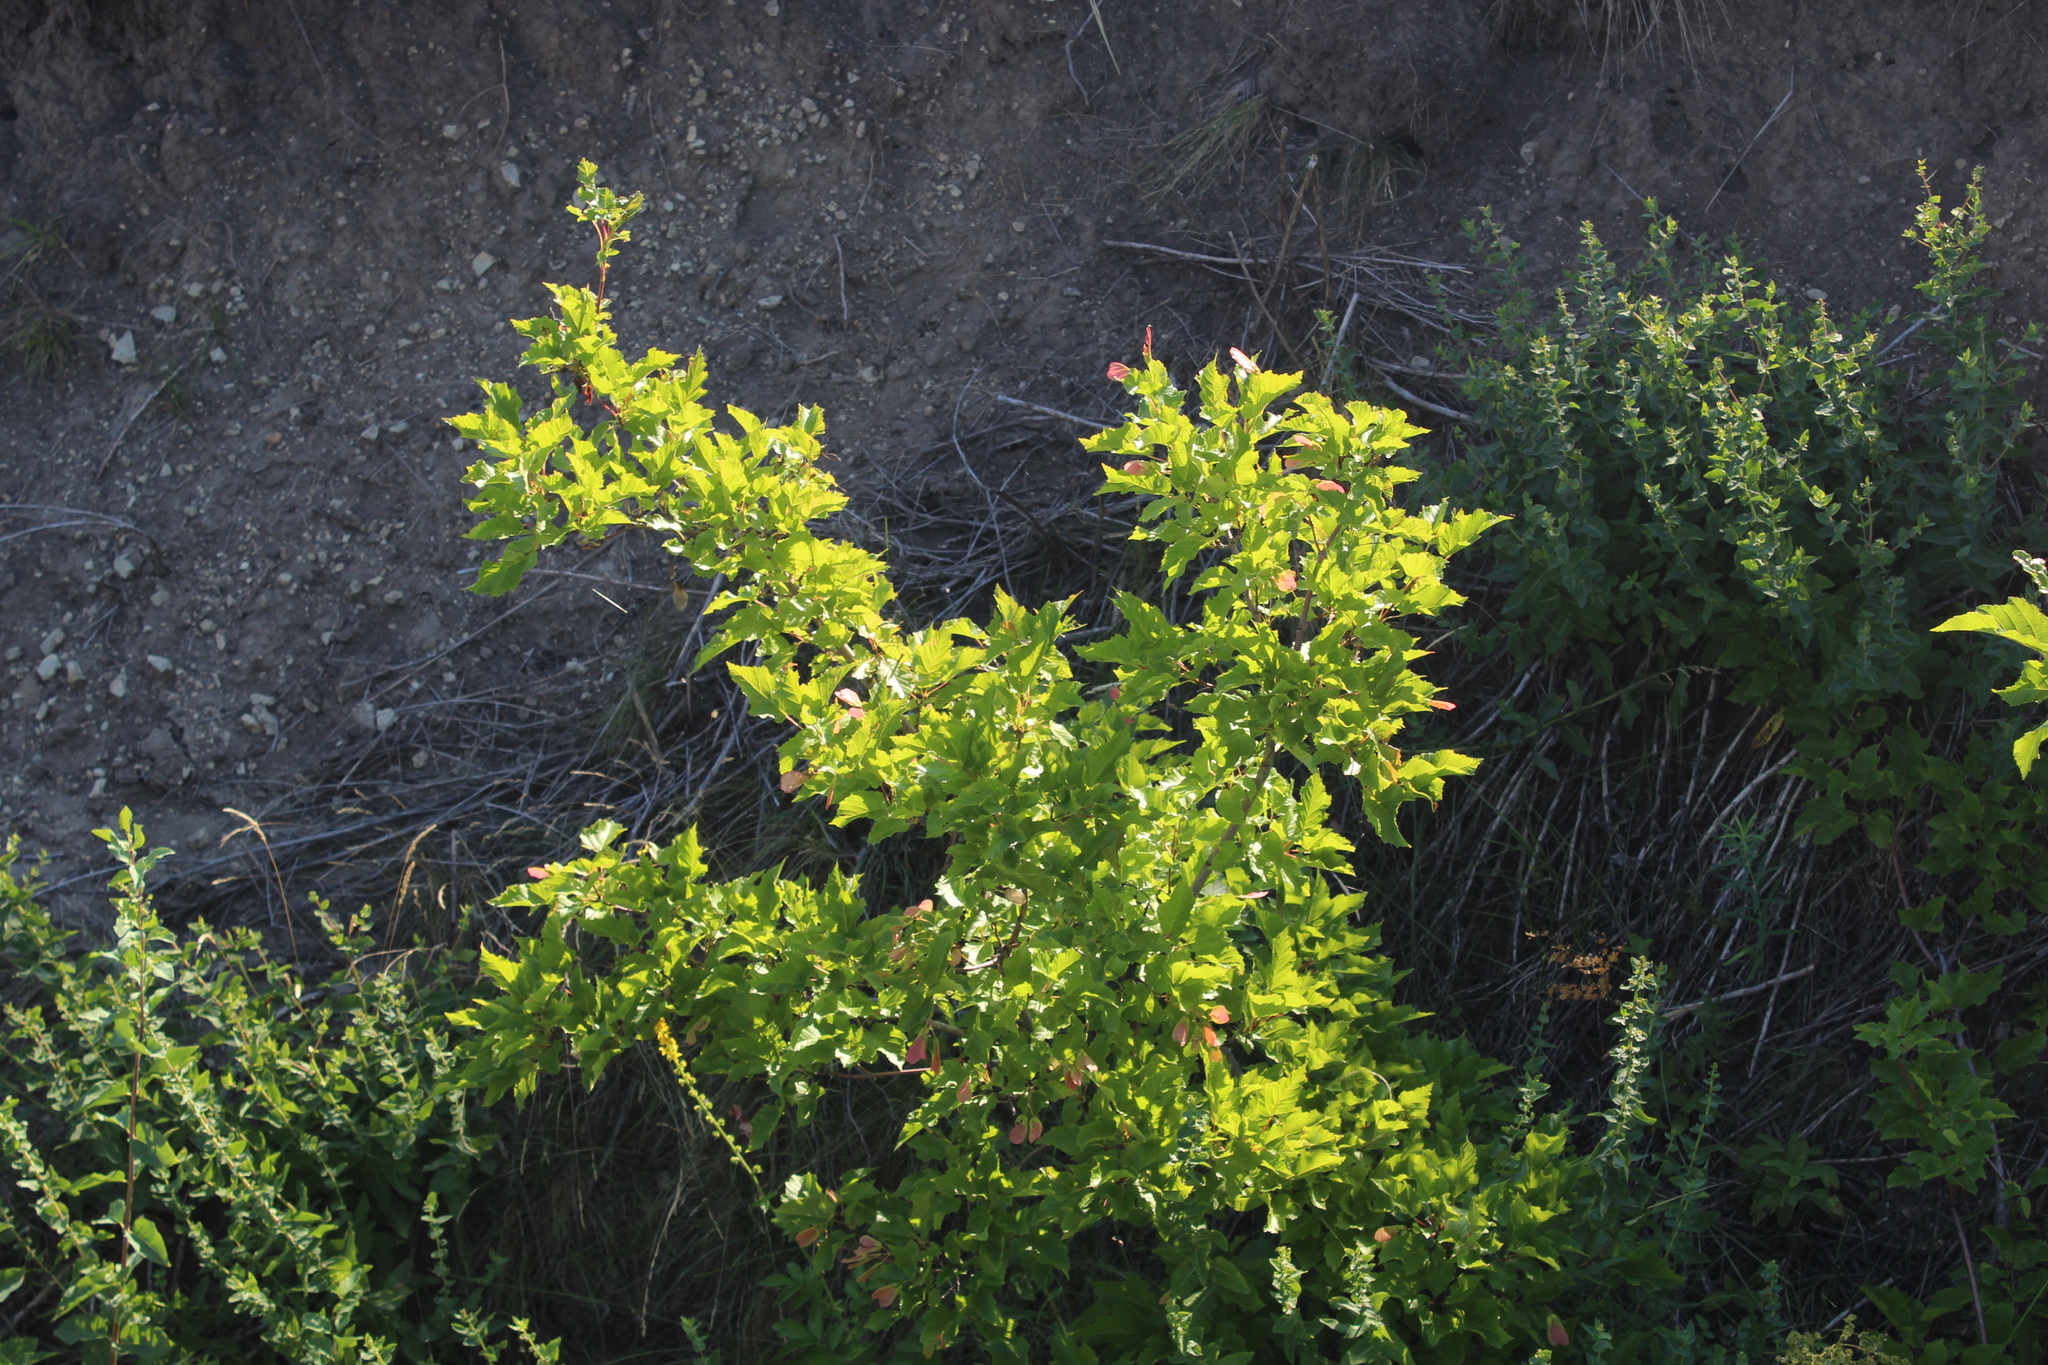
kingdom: Plantae
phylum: Tracheophyta
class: Magnoliopsida
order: Sapindales
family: Sapindaceae
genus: Acer
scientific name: Acer tataricum
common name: Tartar maple
